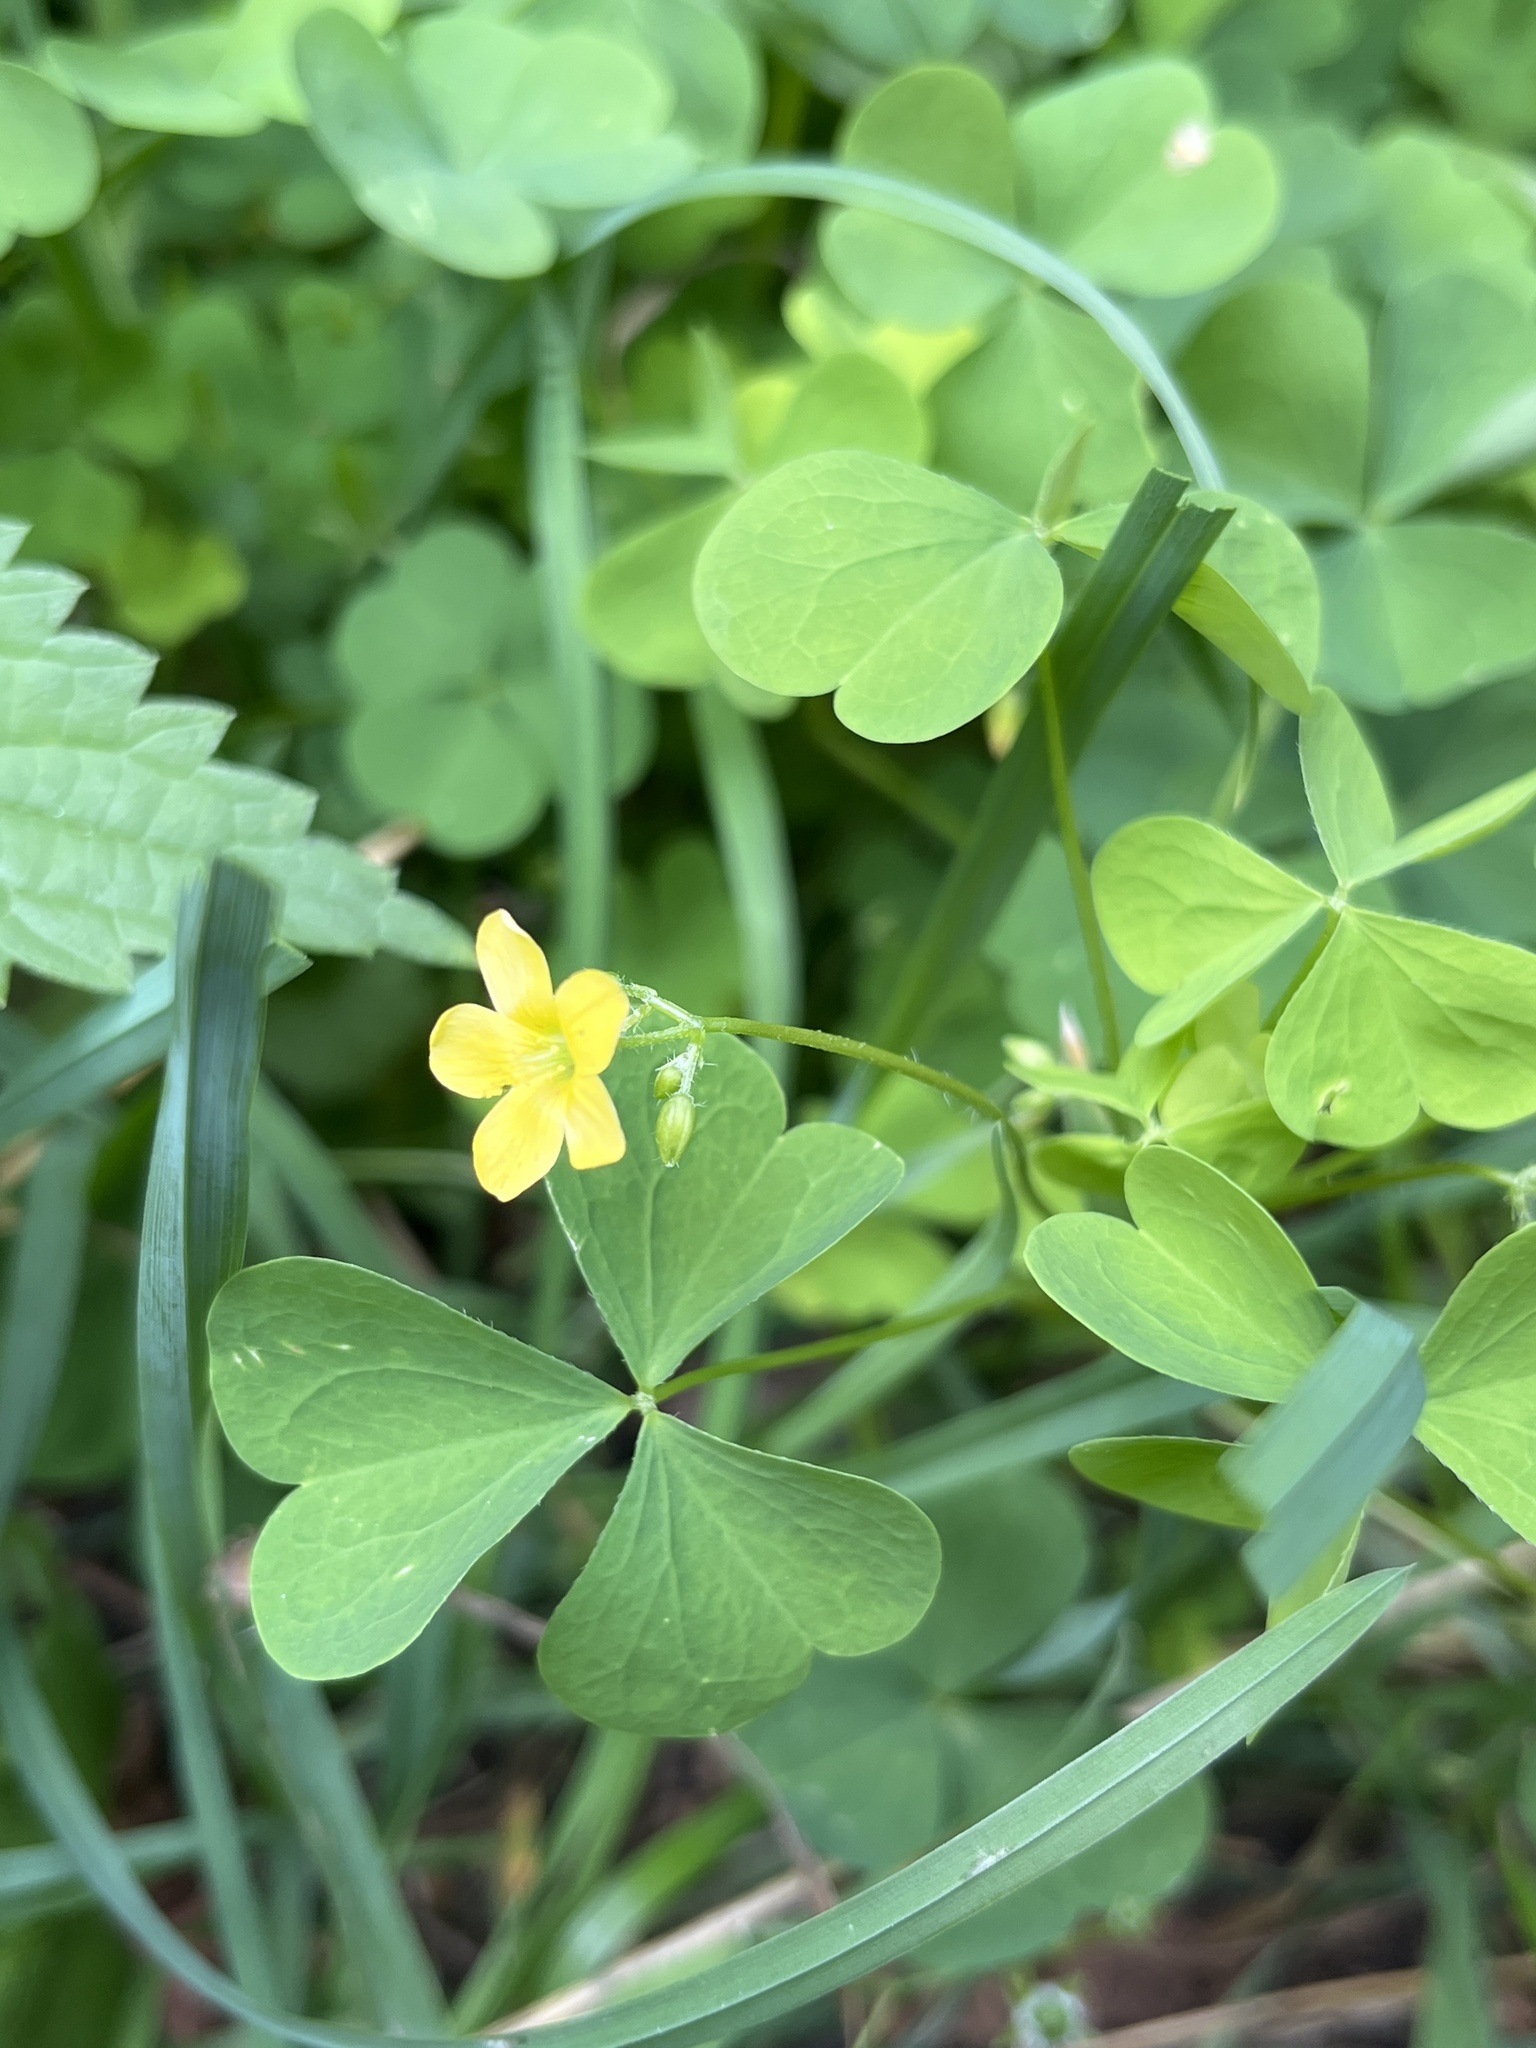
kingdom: Plantae
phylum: Tracheophyta
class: Magnoliopsida
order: Oxalidales
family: Oxalidaceae
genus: Oxalis
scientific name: Oxalis stricta
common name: Upright yellow-sorrel
